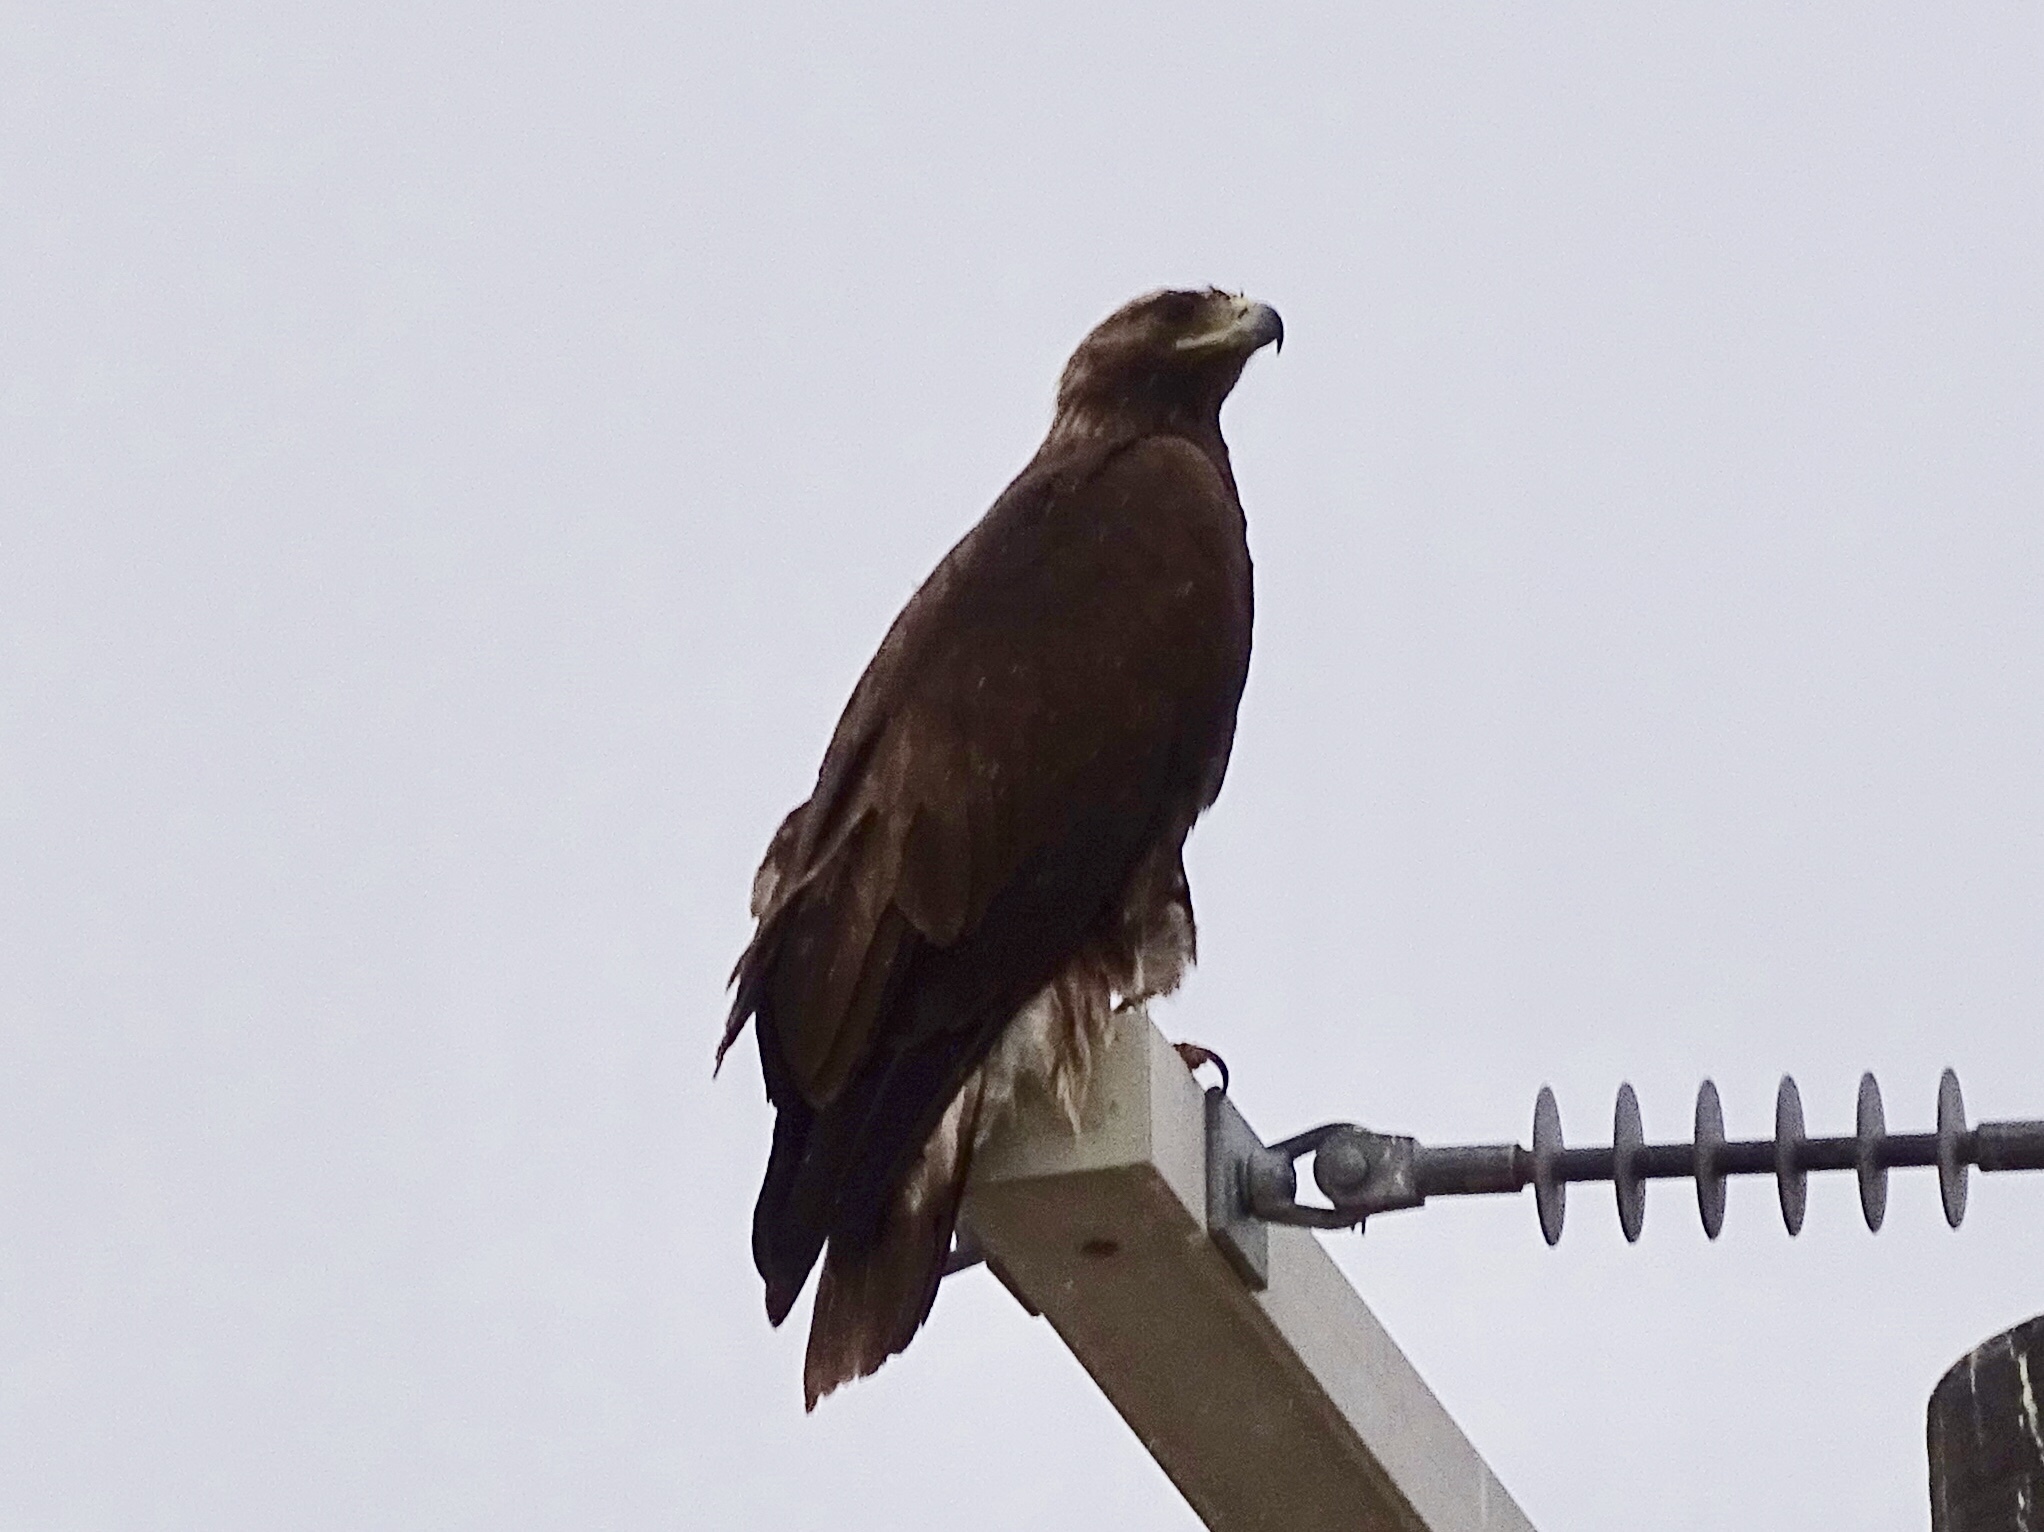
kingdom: Animalia
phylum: Chordata
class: Aves
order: Accipitriformes
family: Accipitridae
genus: Aquila
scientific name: Aquila chrysaetos
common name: Golden eagle
